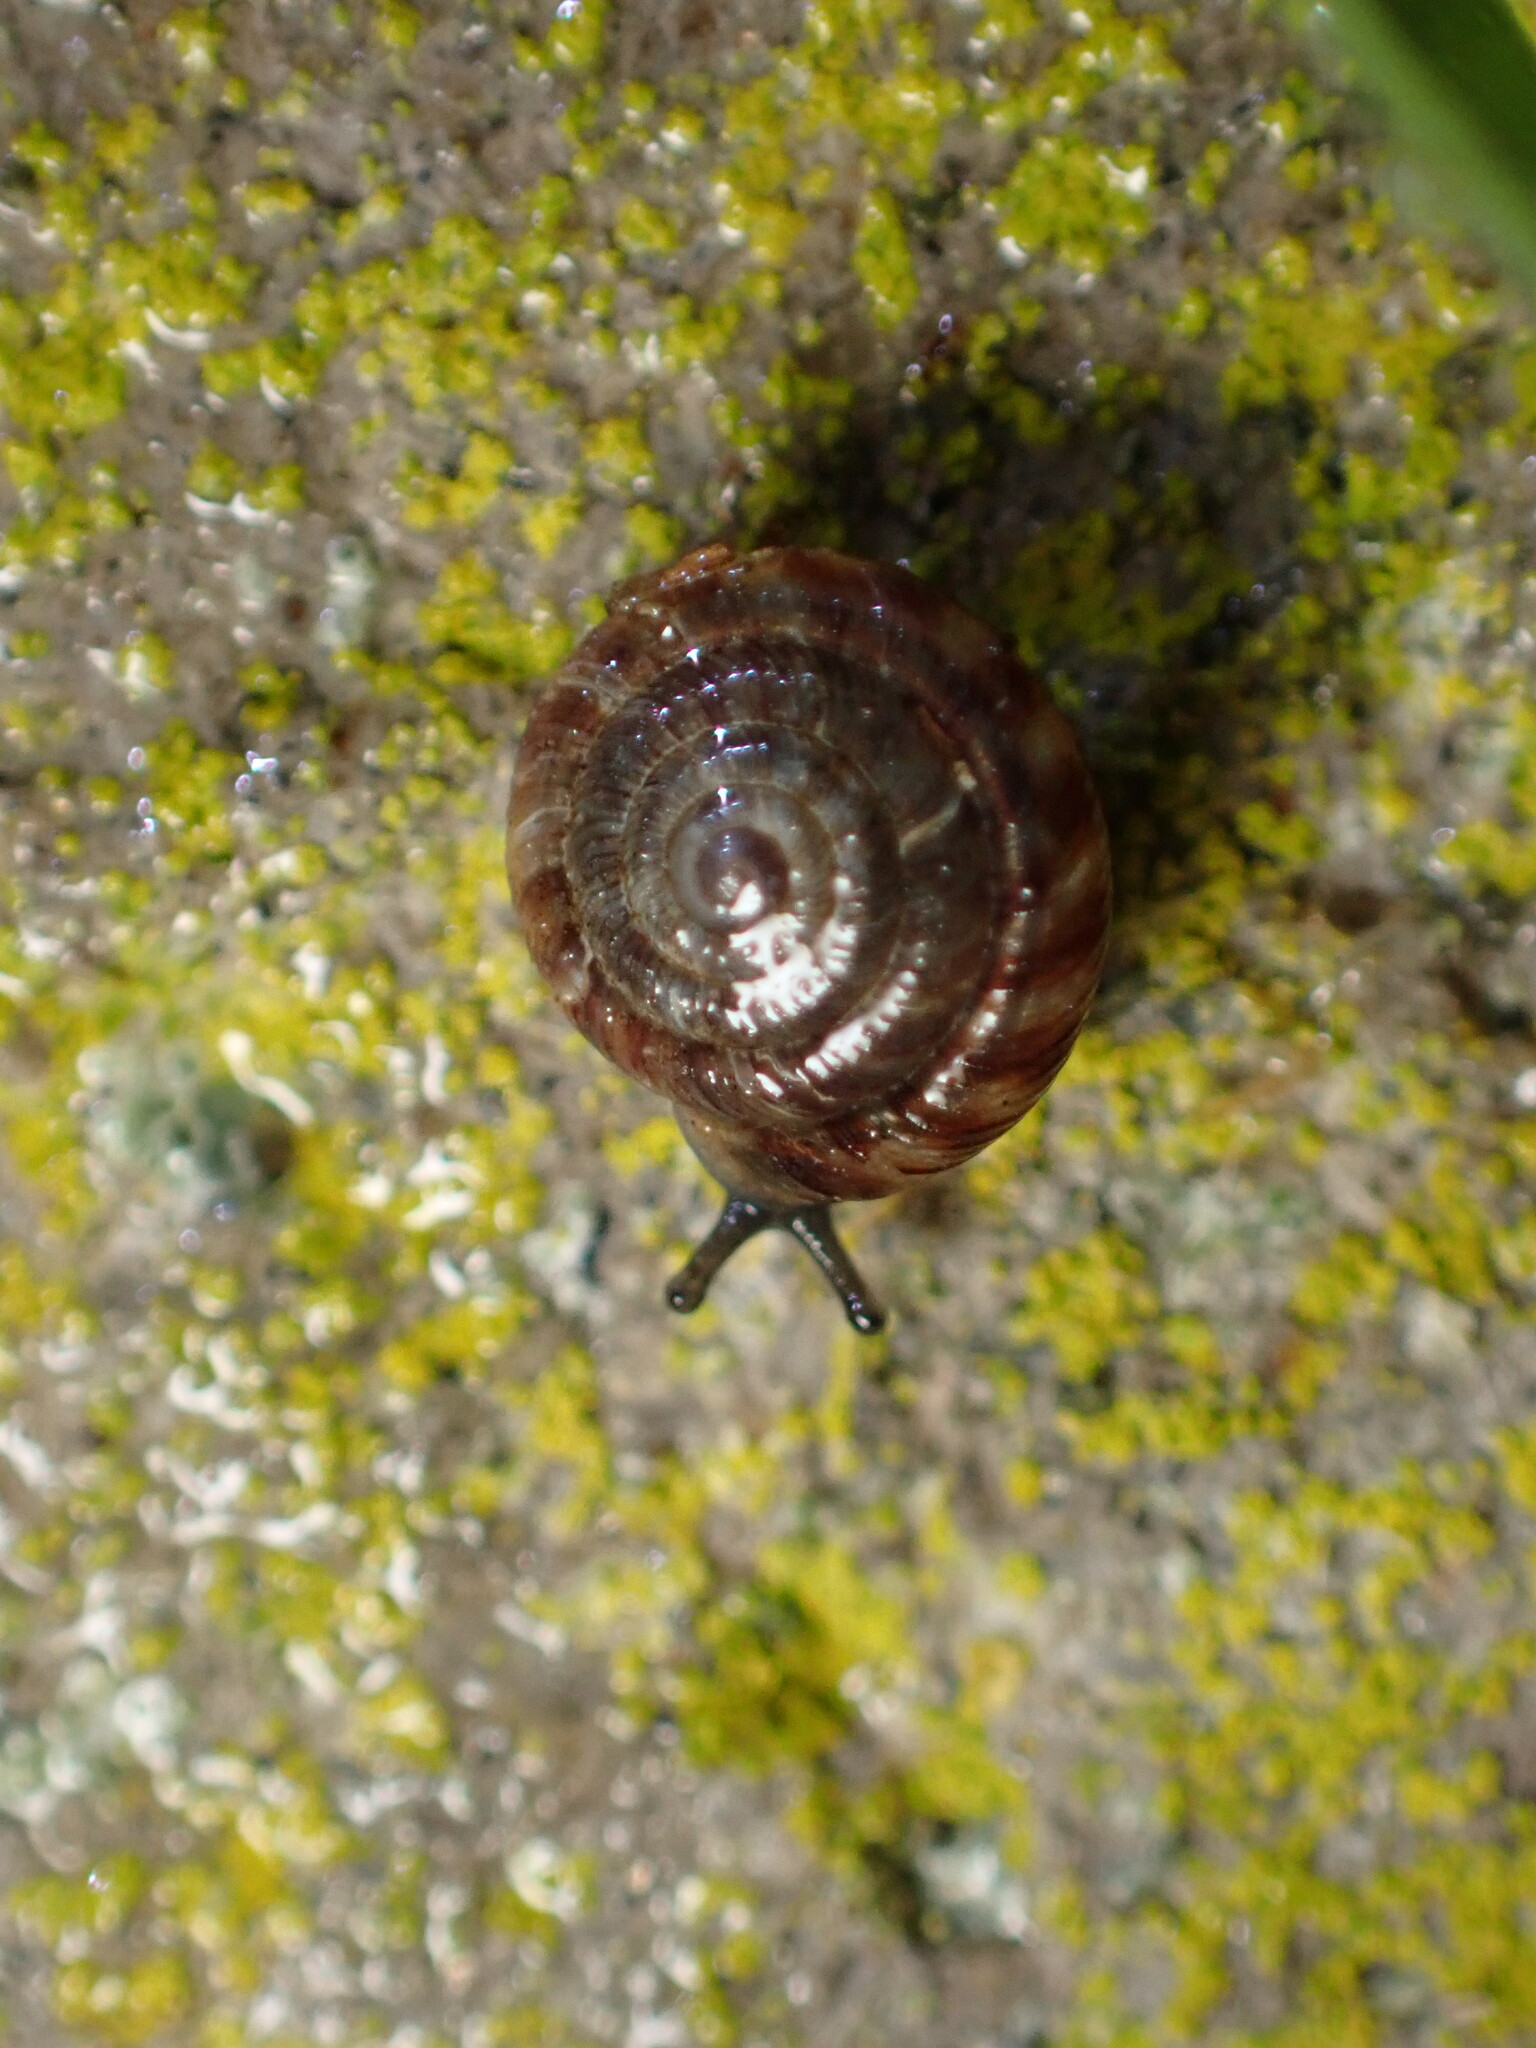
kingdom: Animalia
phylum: Mollusca
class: Gastropoda
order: Stylommatophora
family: Discidae
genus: Discus
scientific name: Discus rotundatus
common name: Rounded snail
